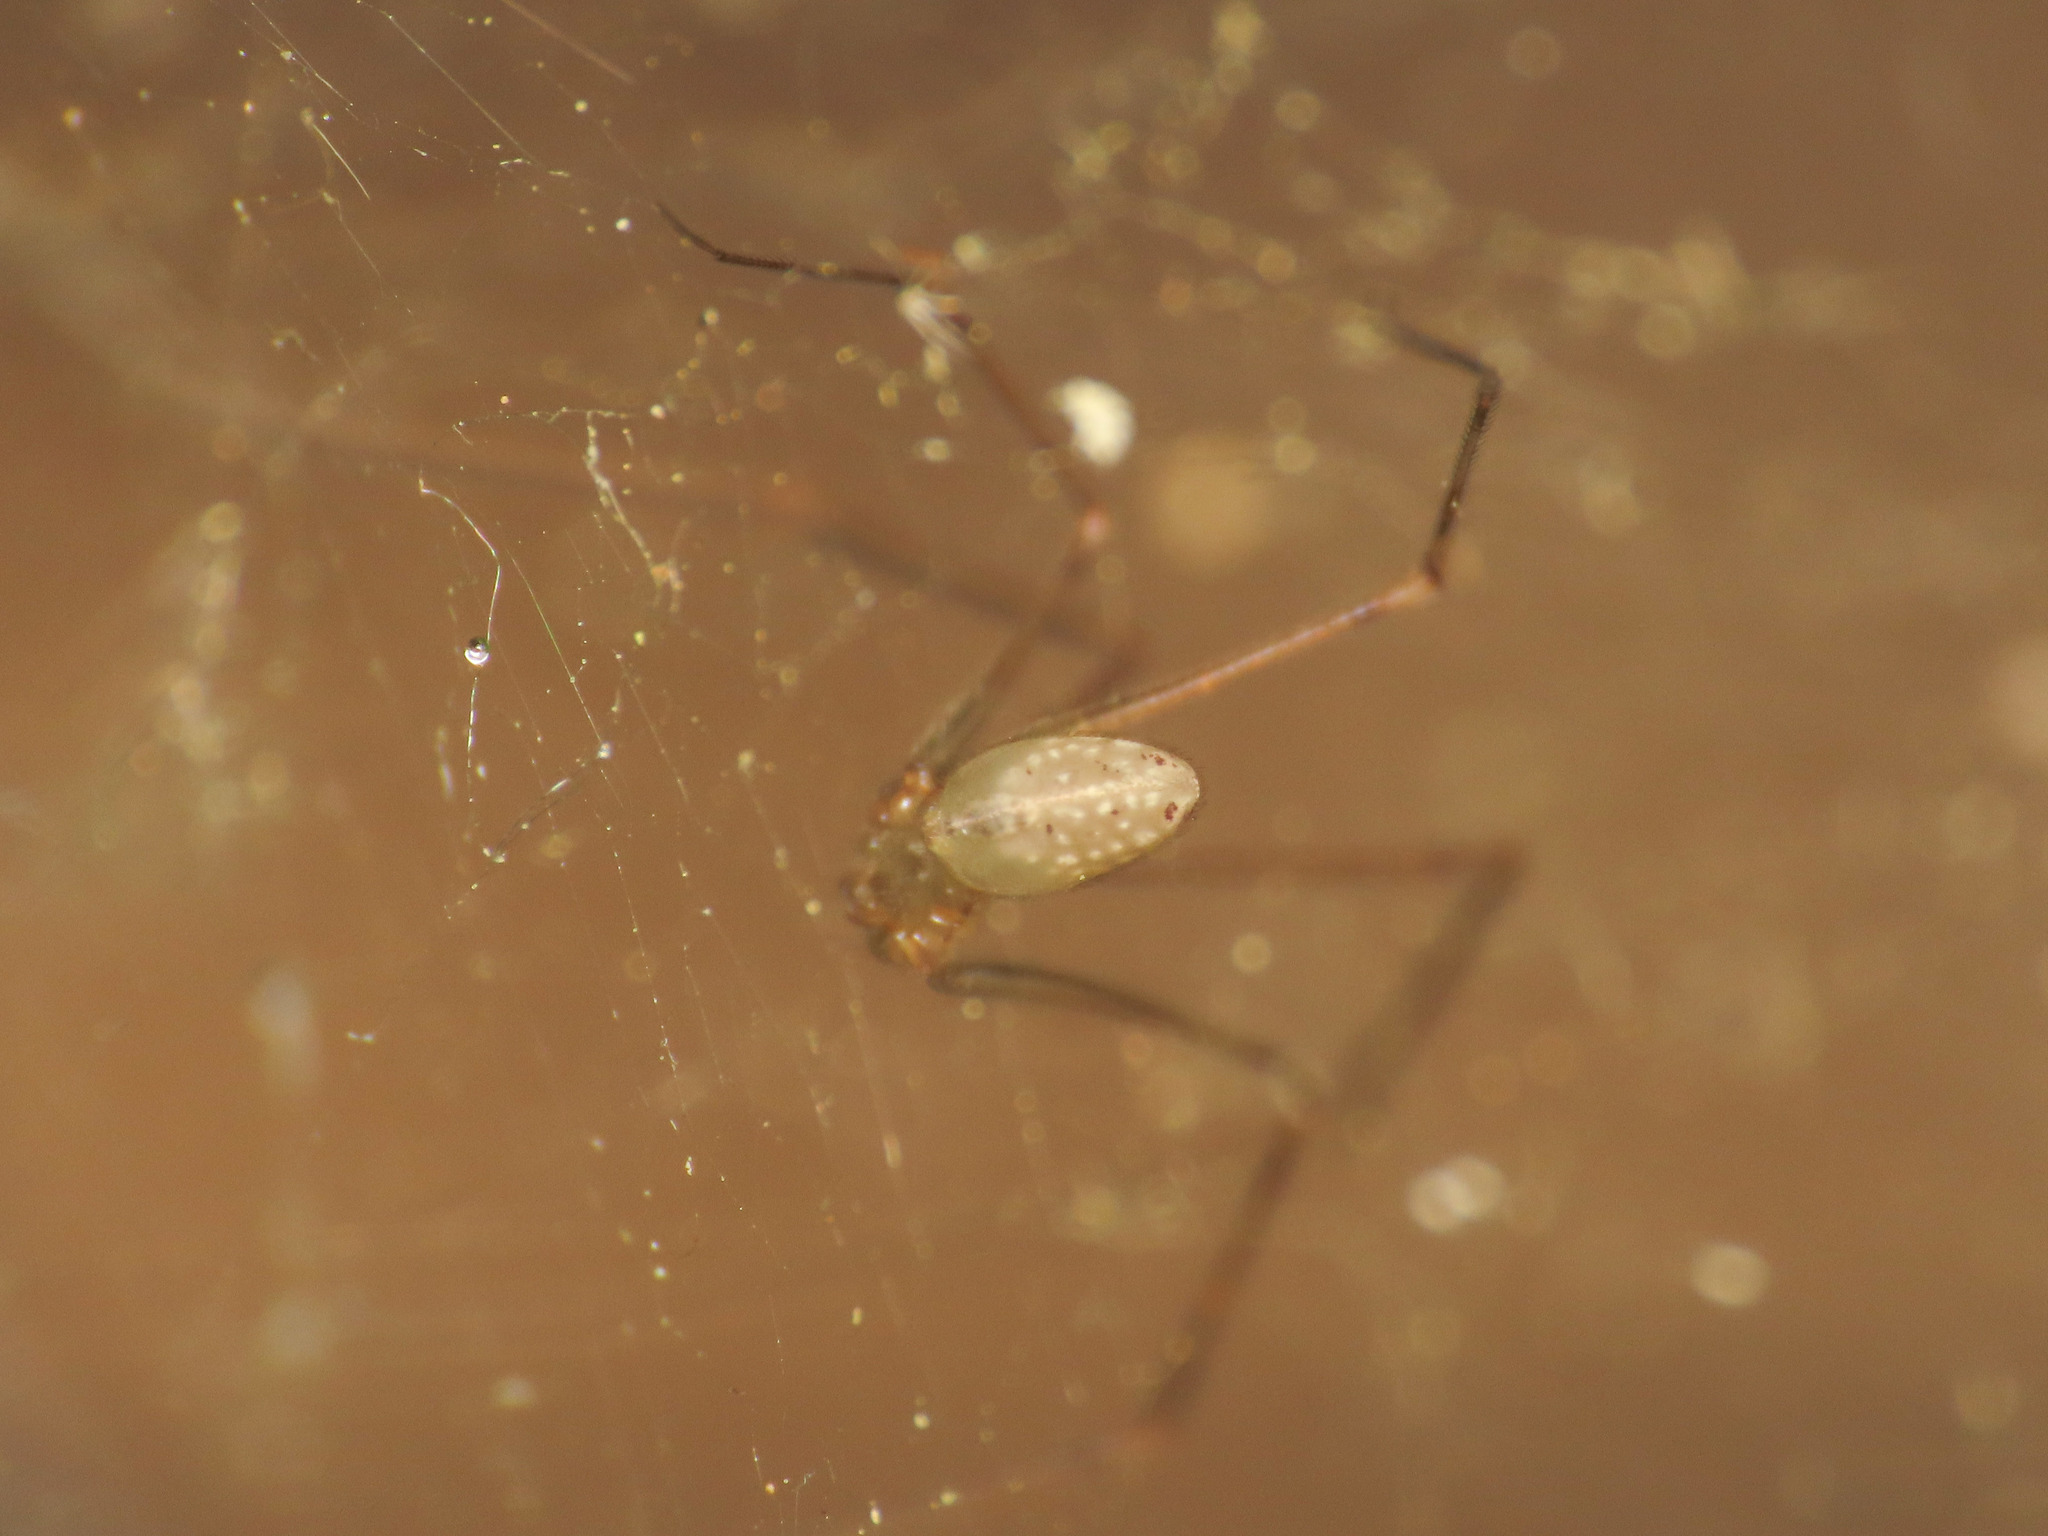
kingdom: Animalia
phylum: Arthropoda
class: Arachnida
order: Araneae
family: Pholcidae
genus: Spermophorides
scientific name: Spermophorides elevata
